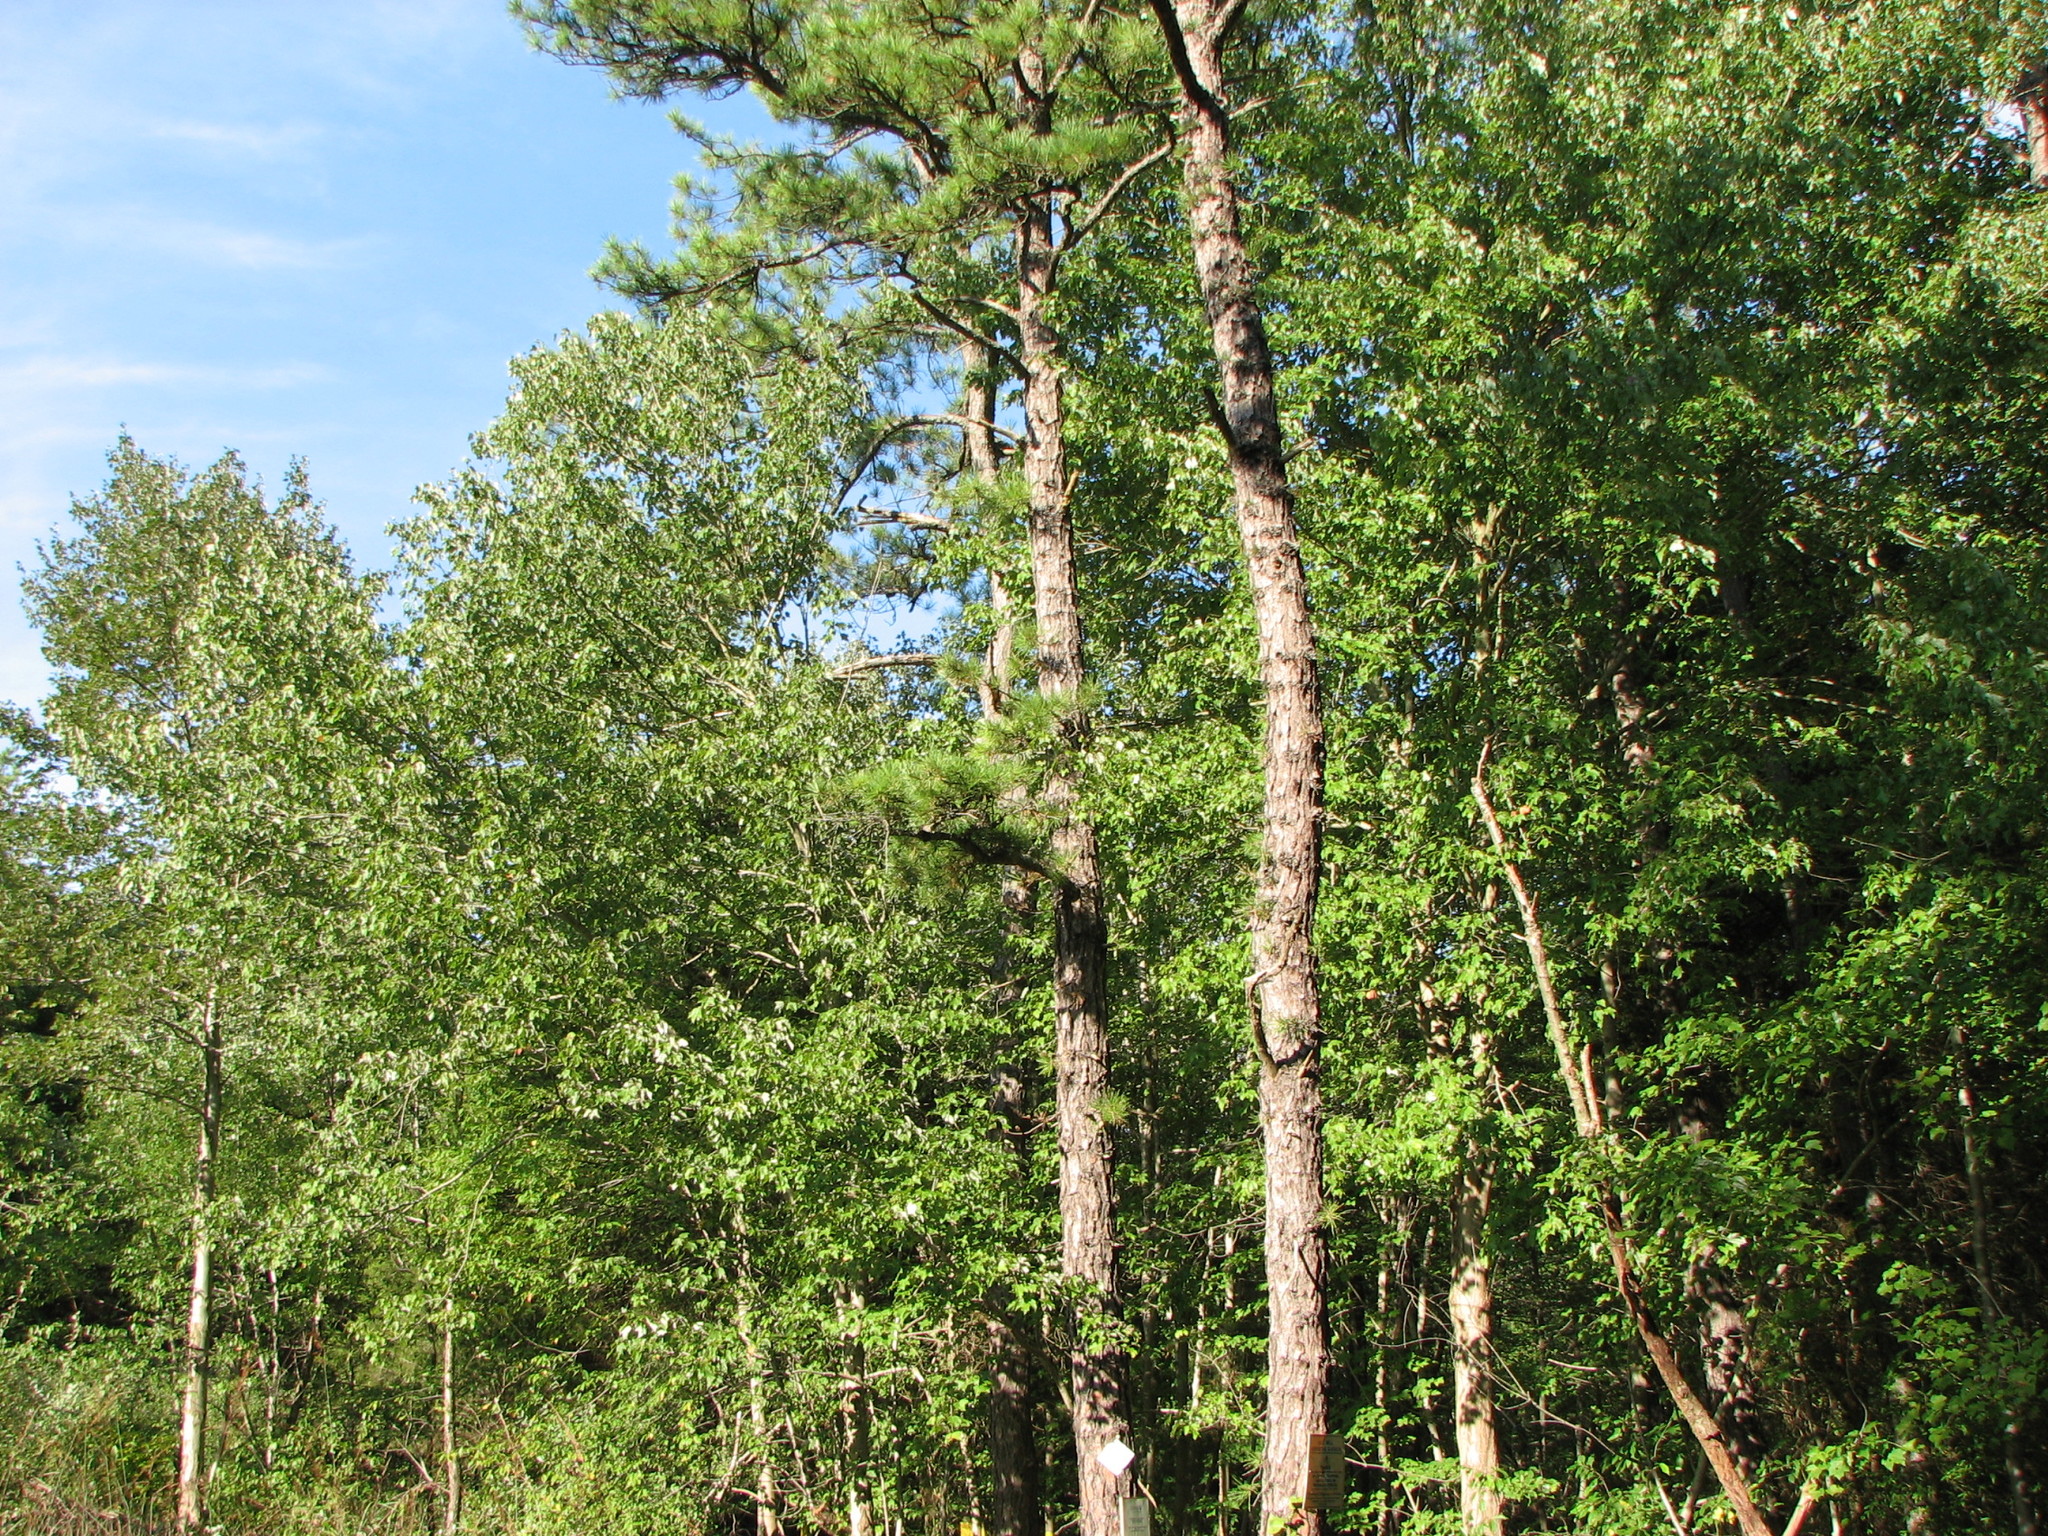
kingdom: Plantae
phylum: Tracheophyta
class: Magnoliopsida
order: Sapindales
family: Sapindaceae
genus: Acer
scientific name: Acer rubrum
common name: Red maple
